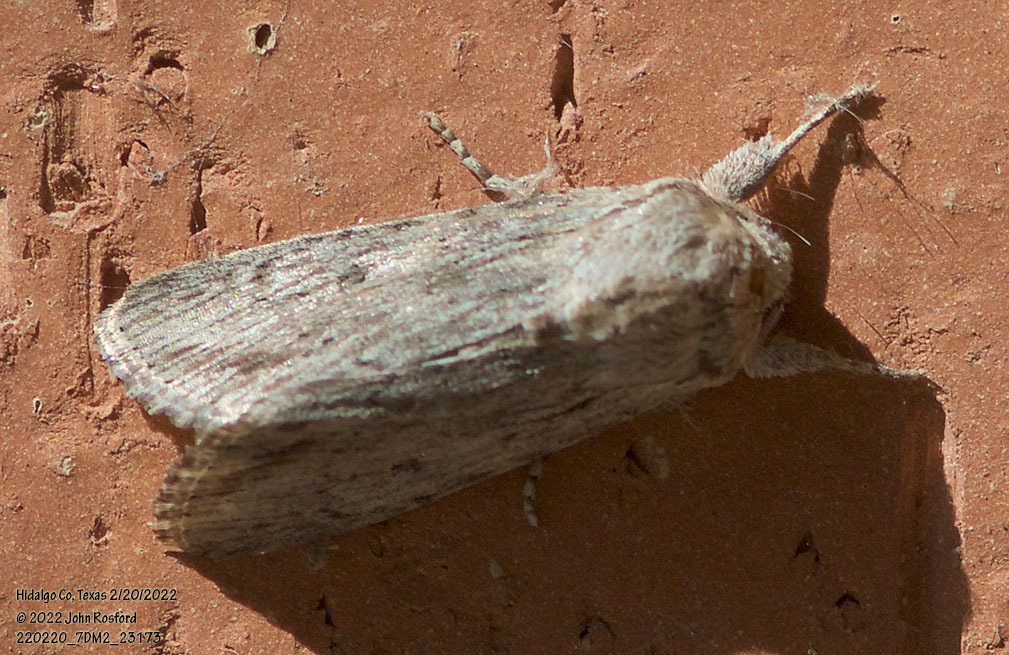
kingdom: Animalia
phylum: Arthropoda
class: Insecta
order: Lepidoptera
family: Noctuidae
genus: Spodoptera
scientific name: Spodoptera albula
